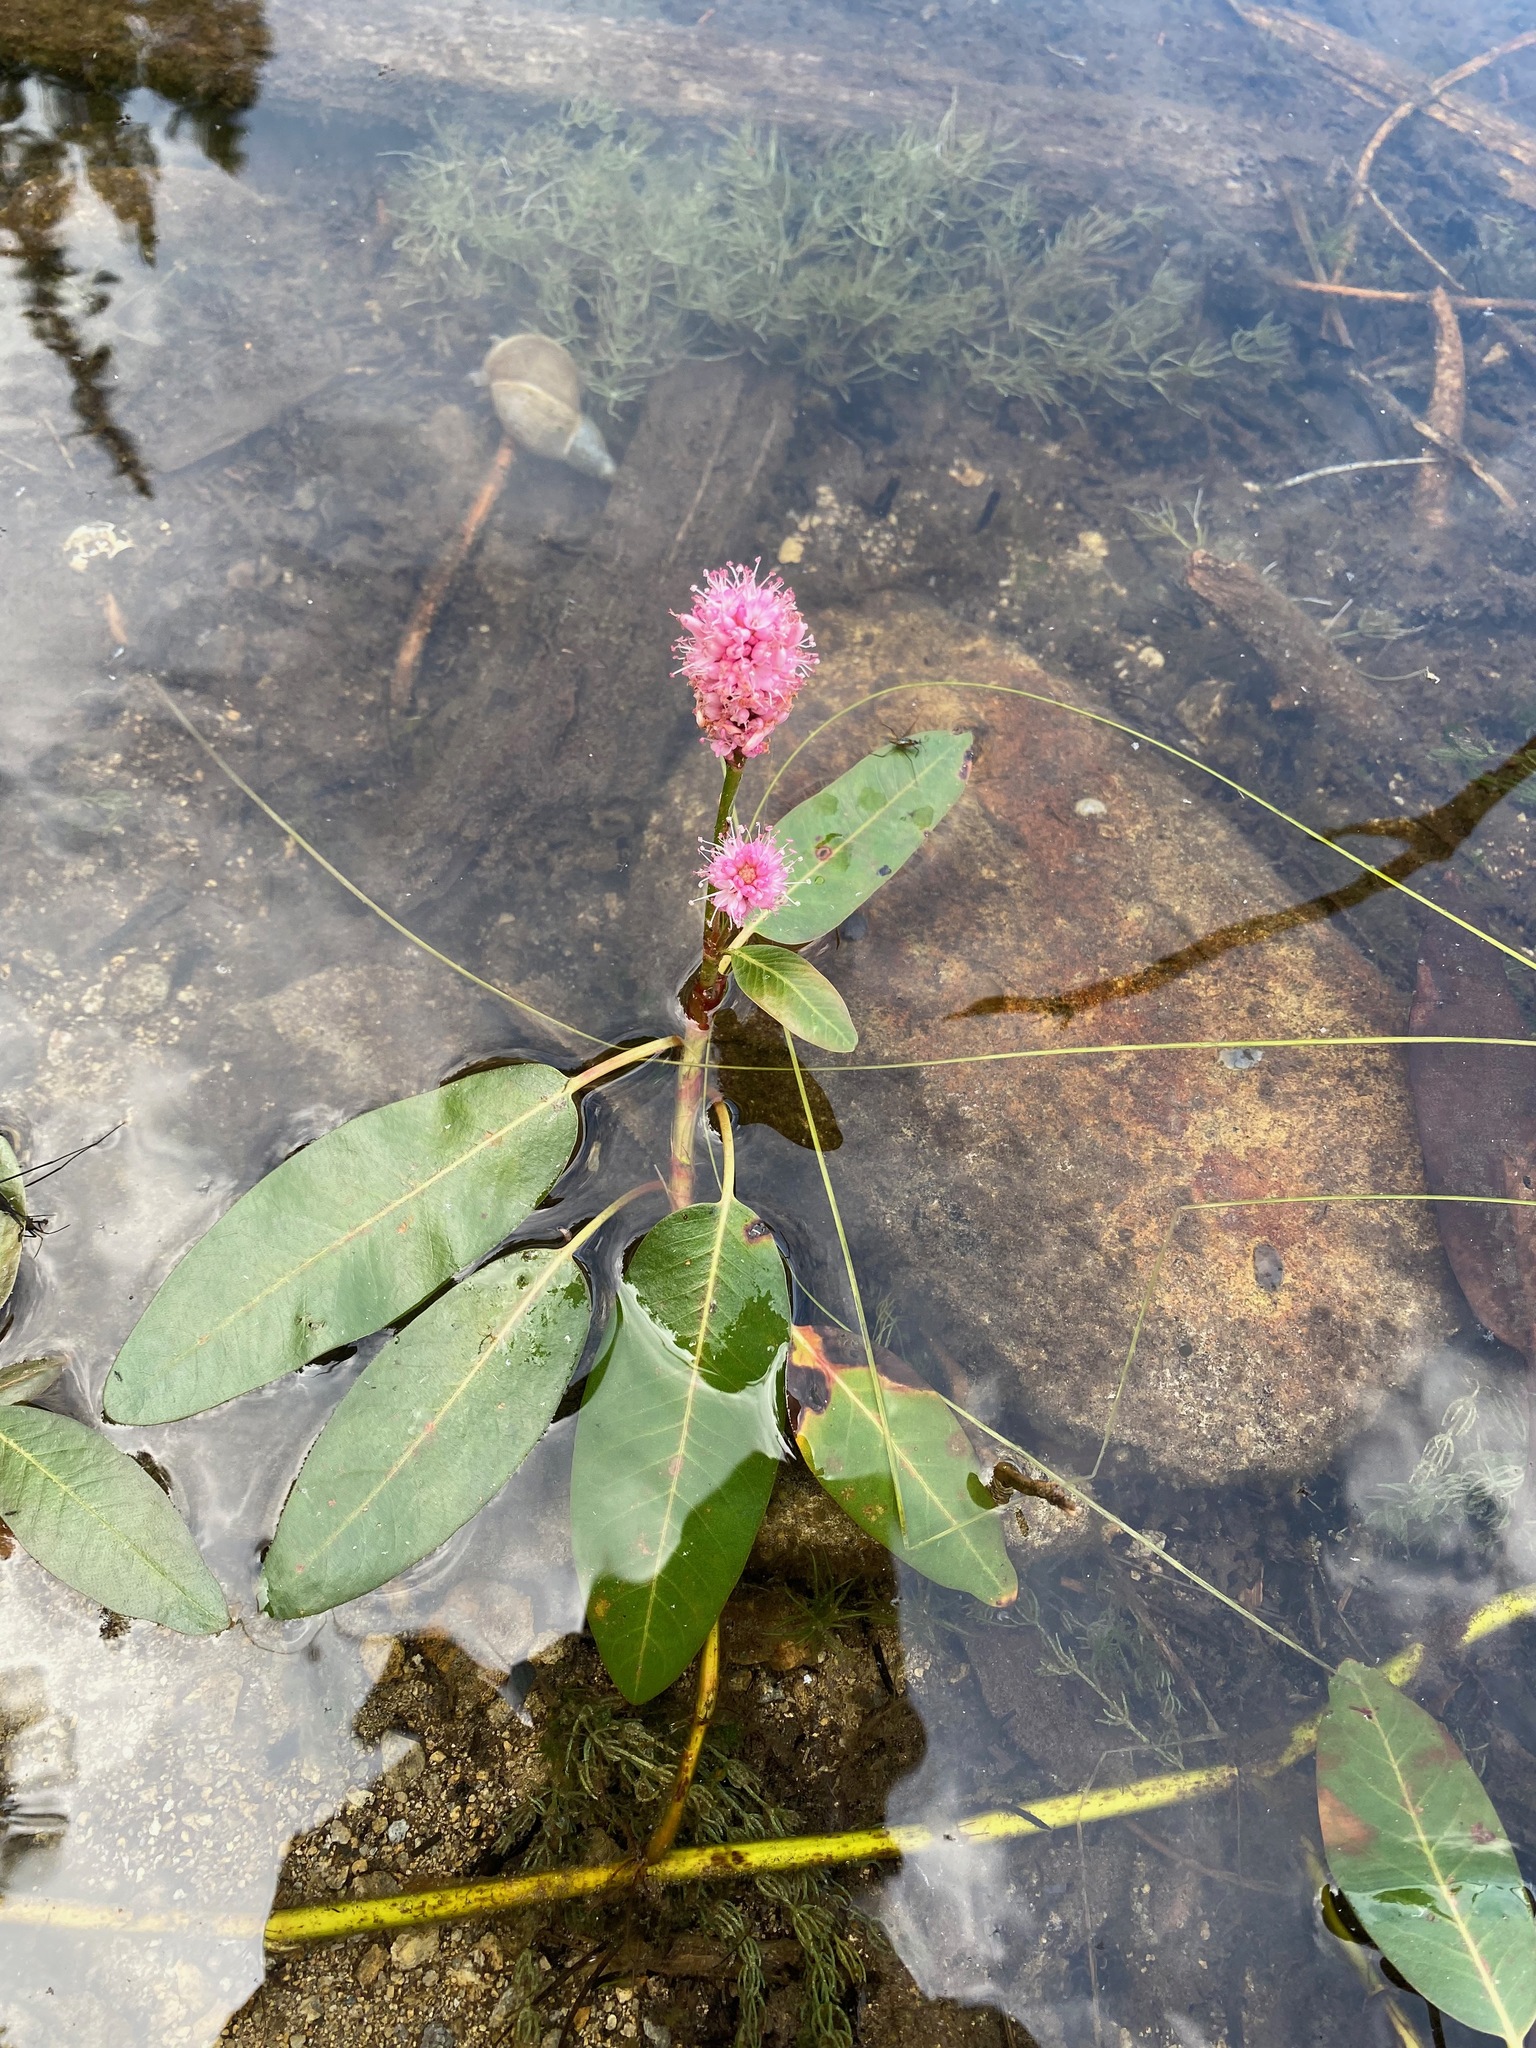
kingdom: Plantae
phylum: Tracheophyta
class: Magnoliopsida
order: Caryophyllales
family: Polygonaceae
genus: Persicaria
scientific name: Persicaria amphibia
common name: Amphibious bistort
